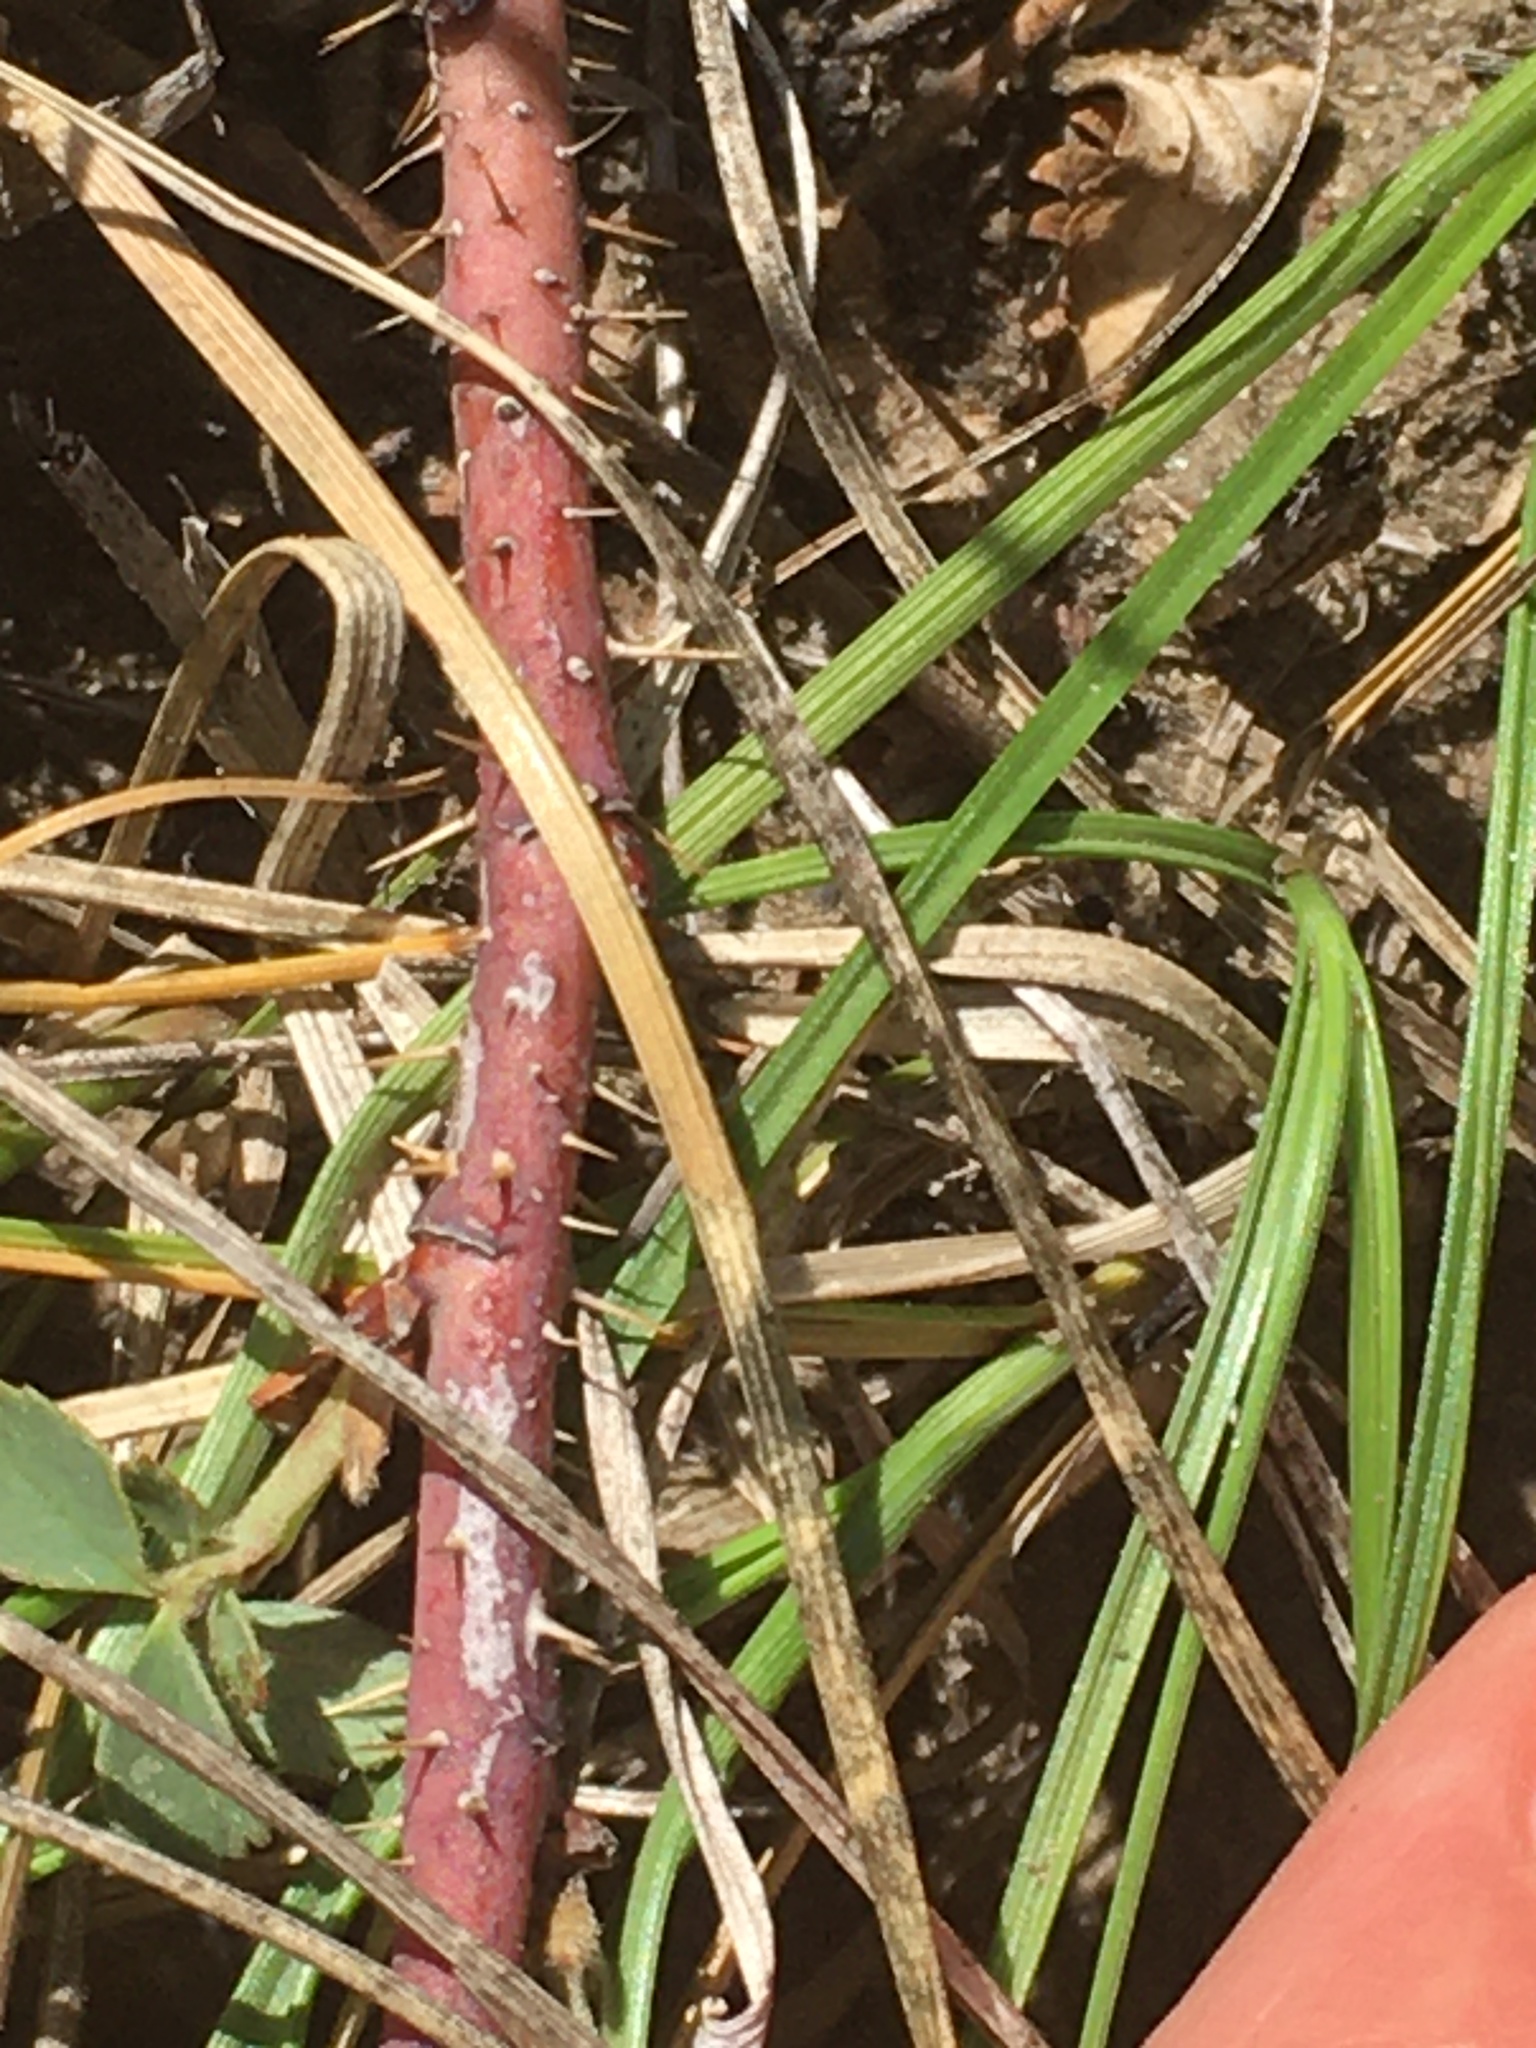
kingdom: Plantae
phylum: Tracheophyta
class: Magnoliopsida
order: Rosales
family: Rosaceae
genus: Rosa
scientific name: Rosa arkansana
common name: Prairie rose
